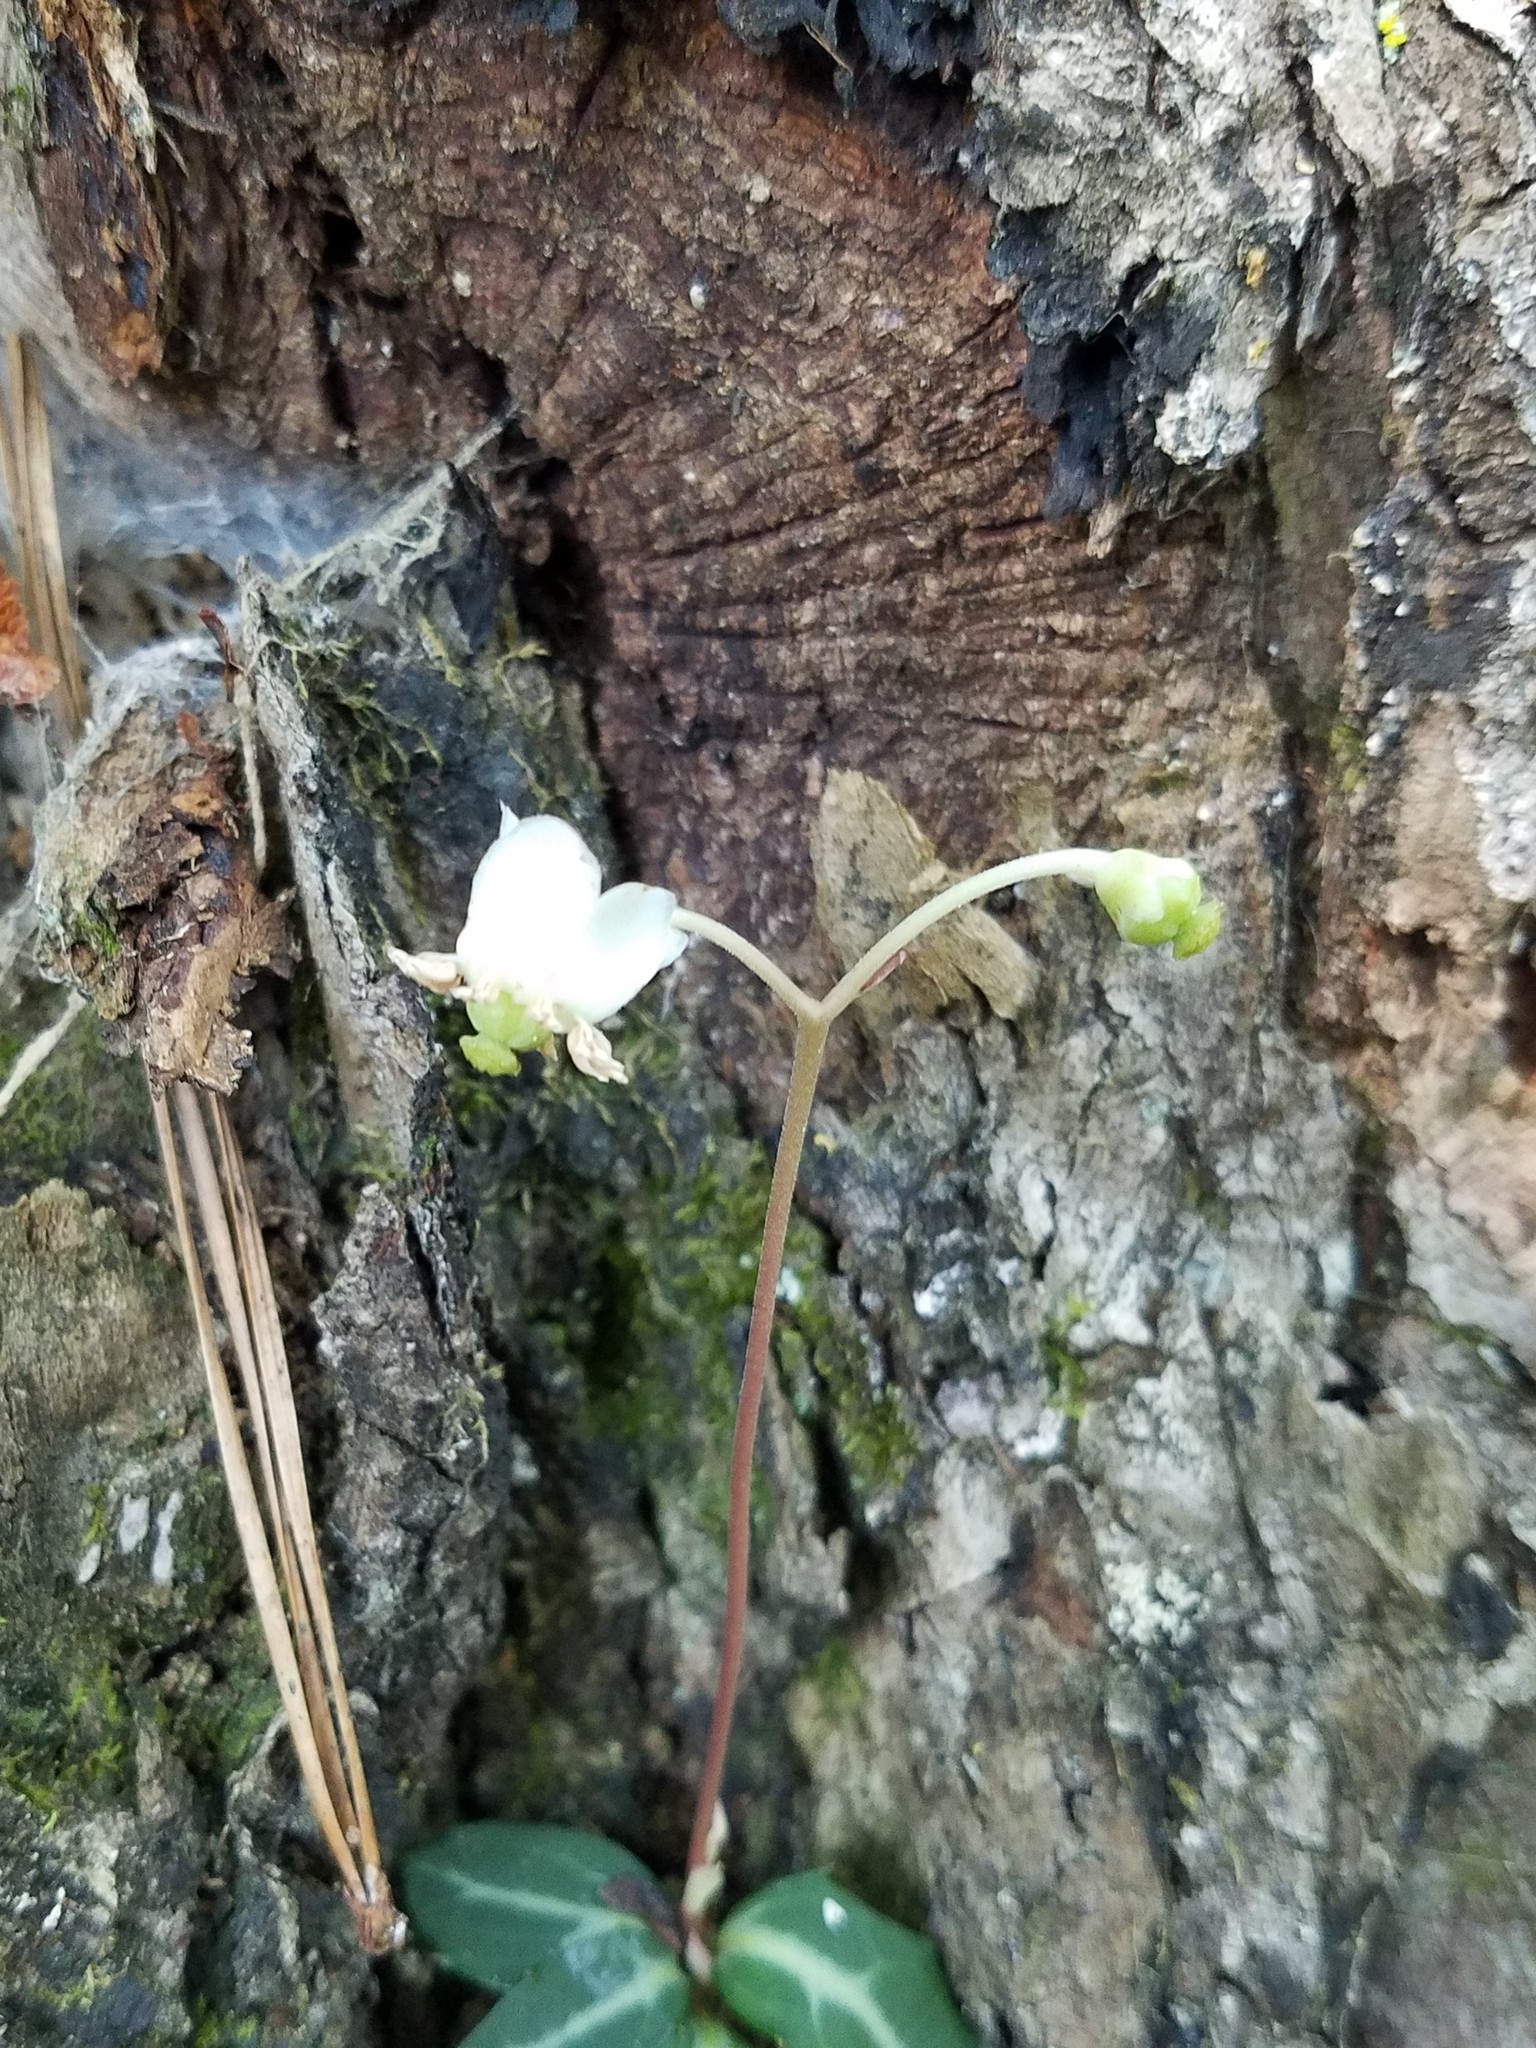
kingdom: Plantae
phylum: Tracheophyta
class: Magnoliopsida
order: Ericales
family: Ericaceae
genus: Chimaphila
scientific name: Chimaphila maculata
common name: Spotted pipsissewa
